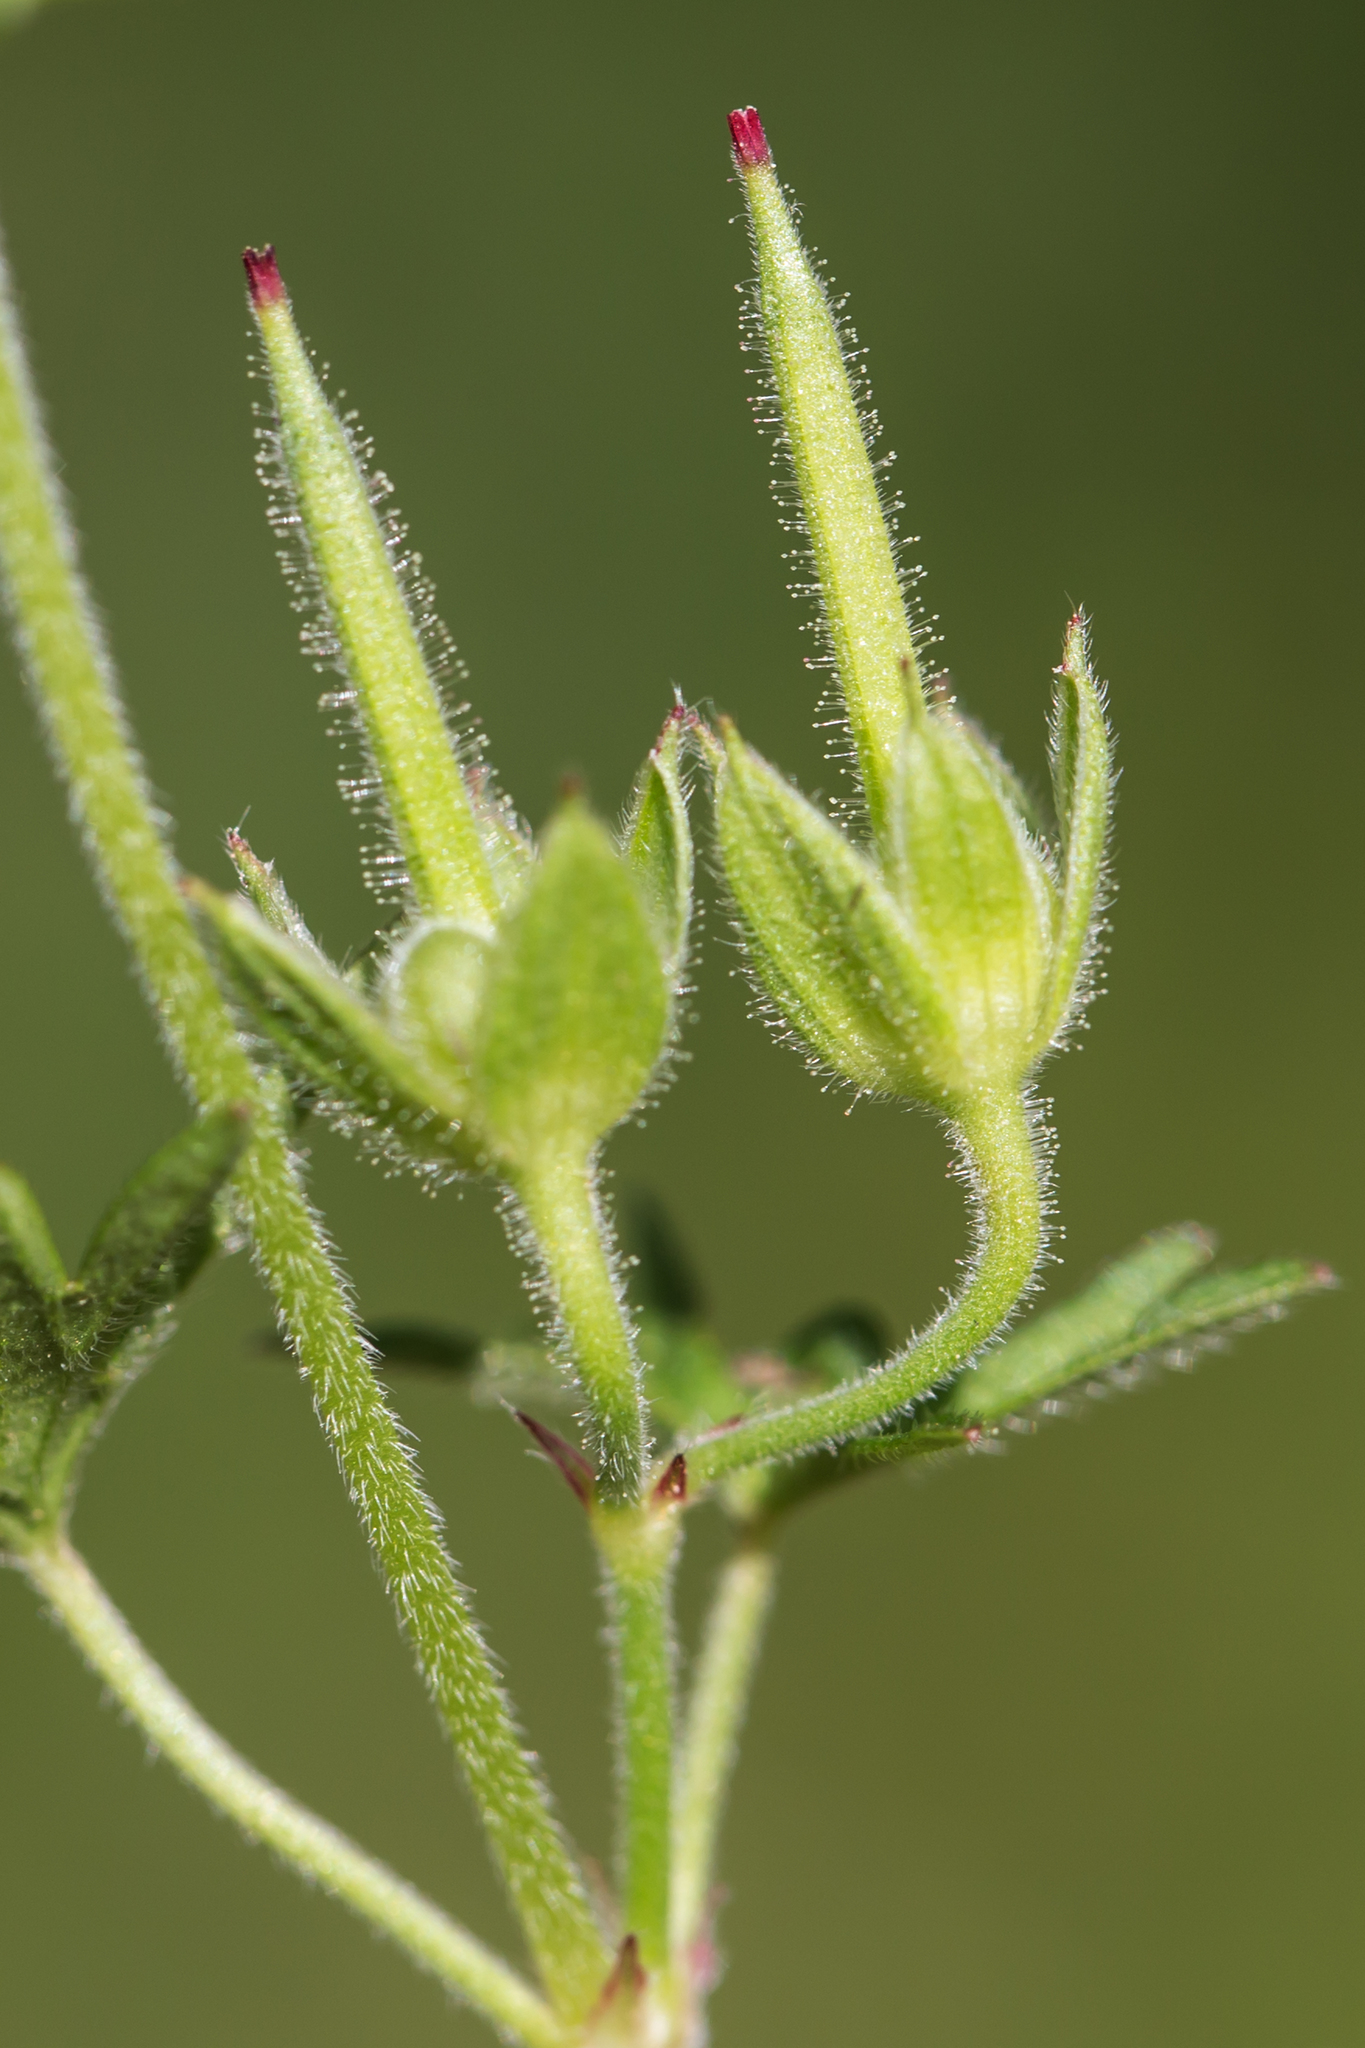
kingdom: Plantae
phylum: Tracheophyta
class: Magnoliopsida
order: Geraniales
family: Geraniaceae
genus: Geranium
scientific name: Geranium dissectum
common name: Cut-leaved crane's-bill
